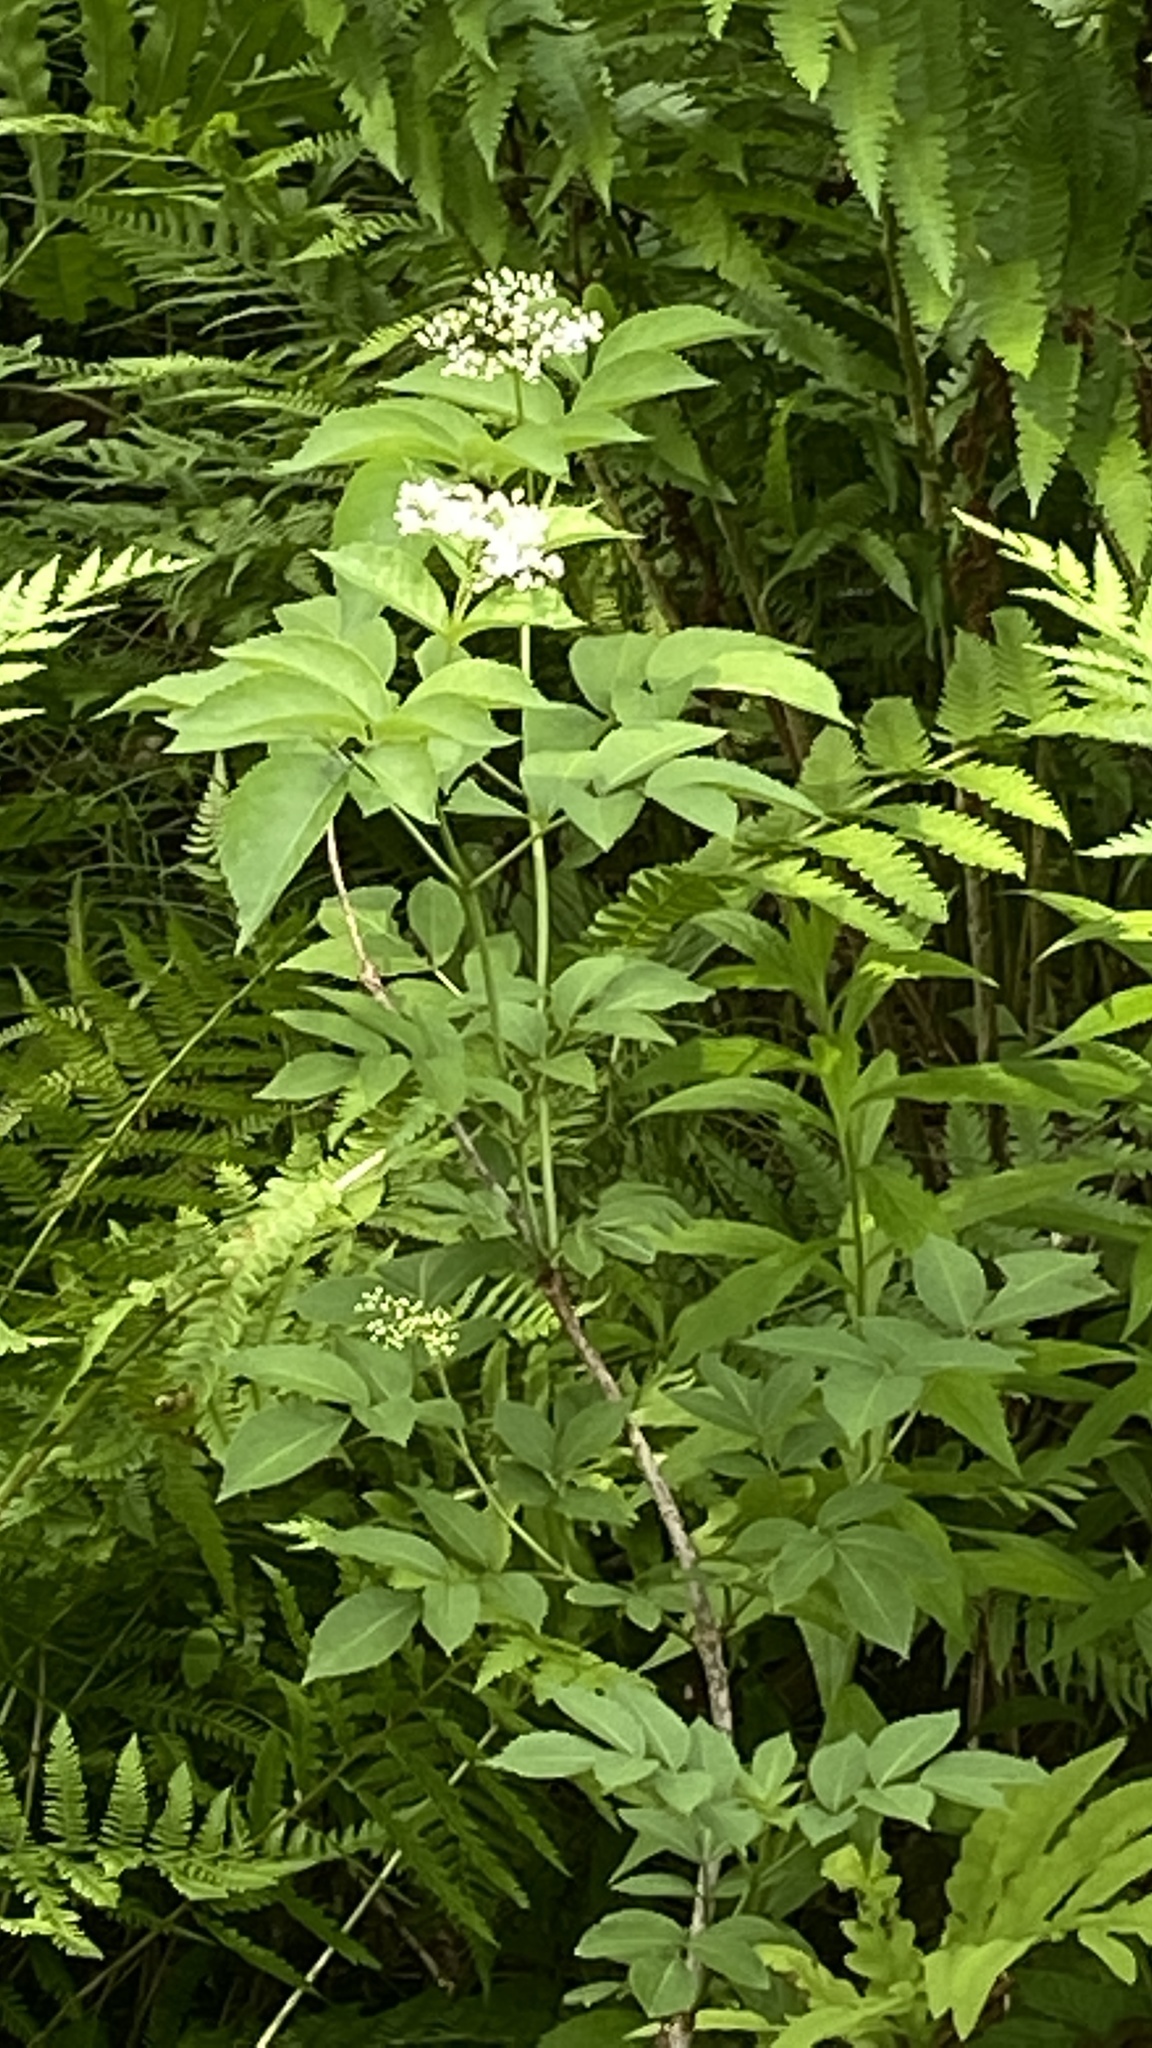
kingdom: Plantae
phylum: Tracheophyta
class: Magnoliopsida
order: Dipsacales
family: Viburnaceae
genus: Sambucus
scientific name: Sambucus racemosa
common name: Red-berried elder
